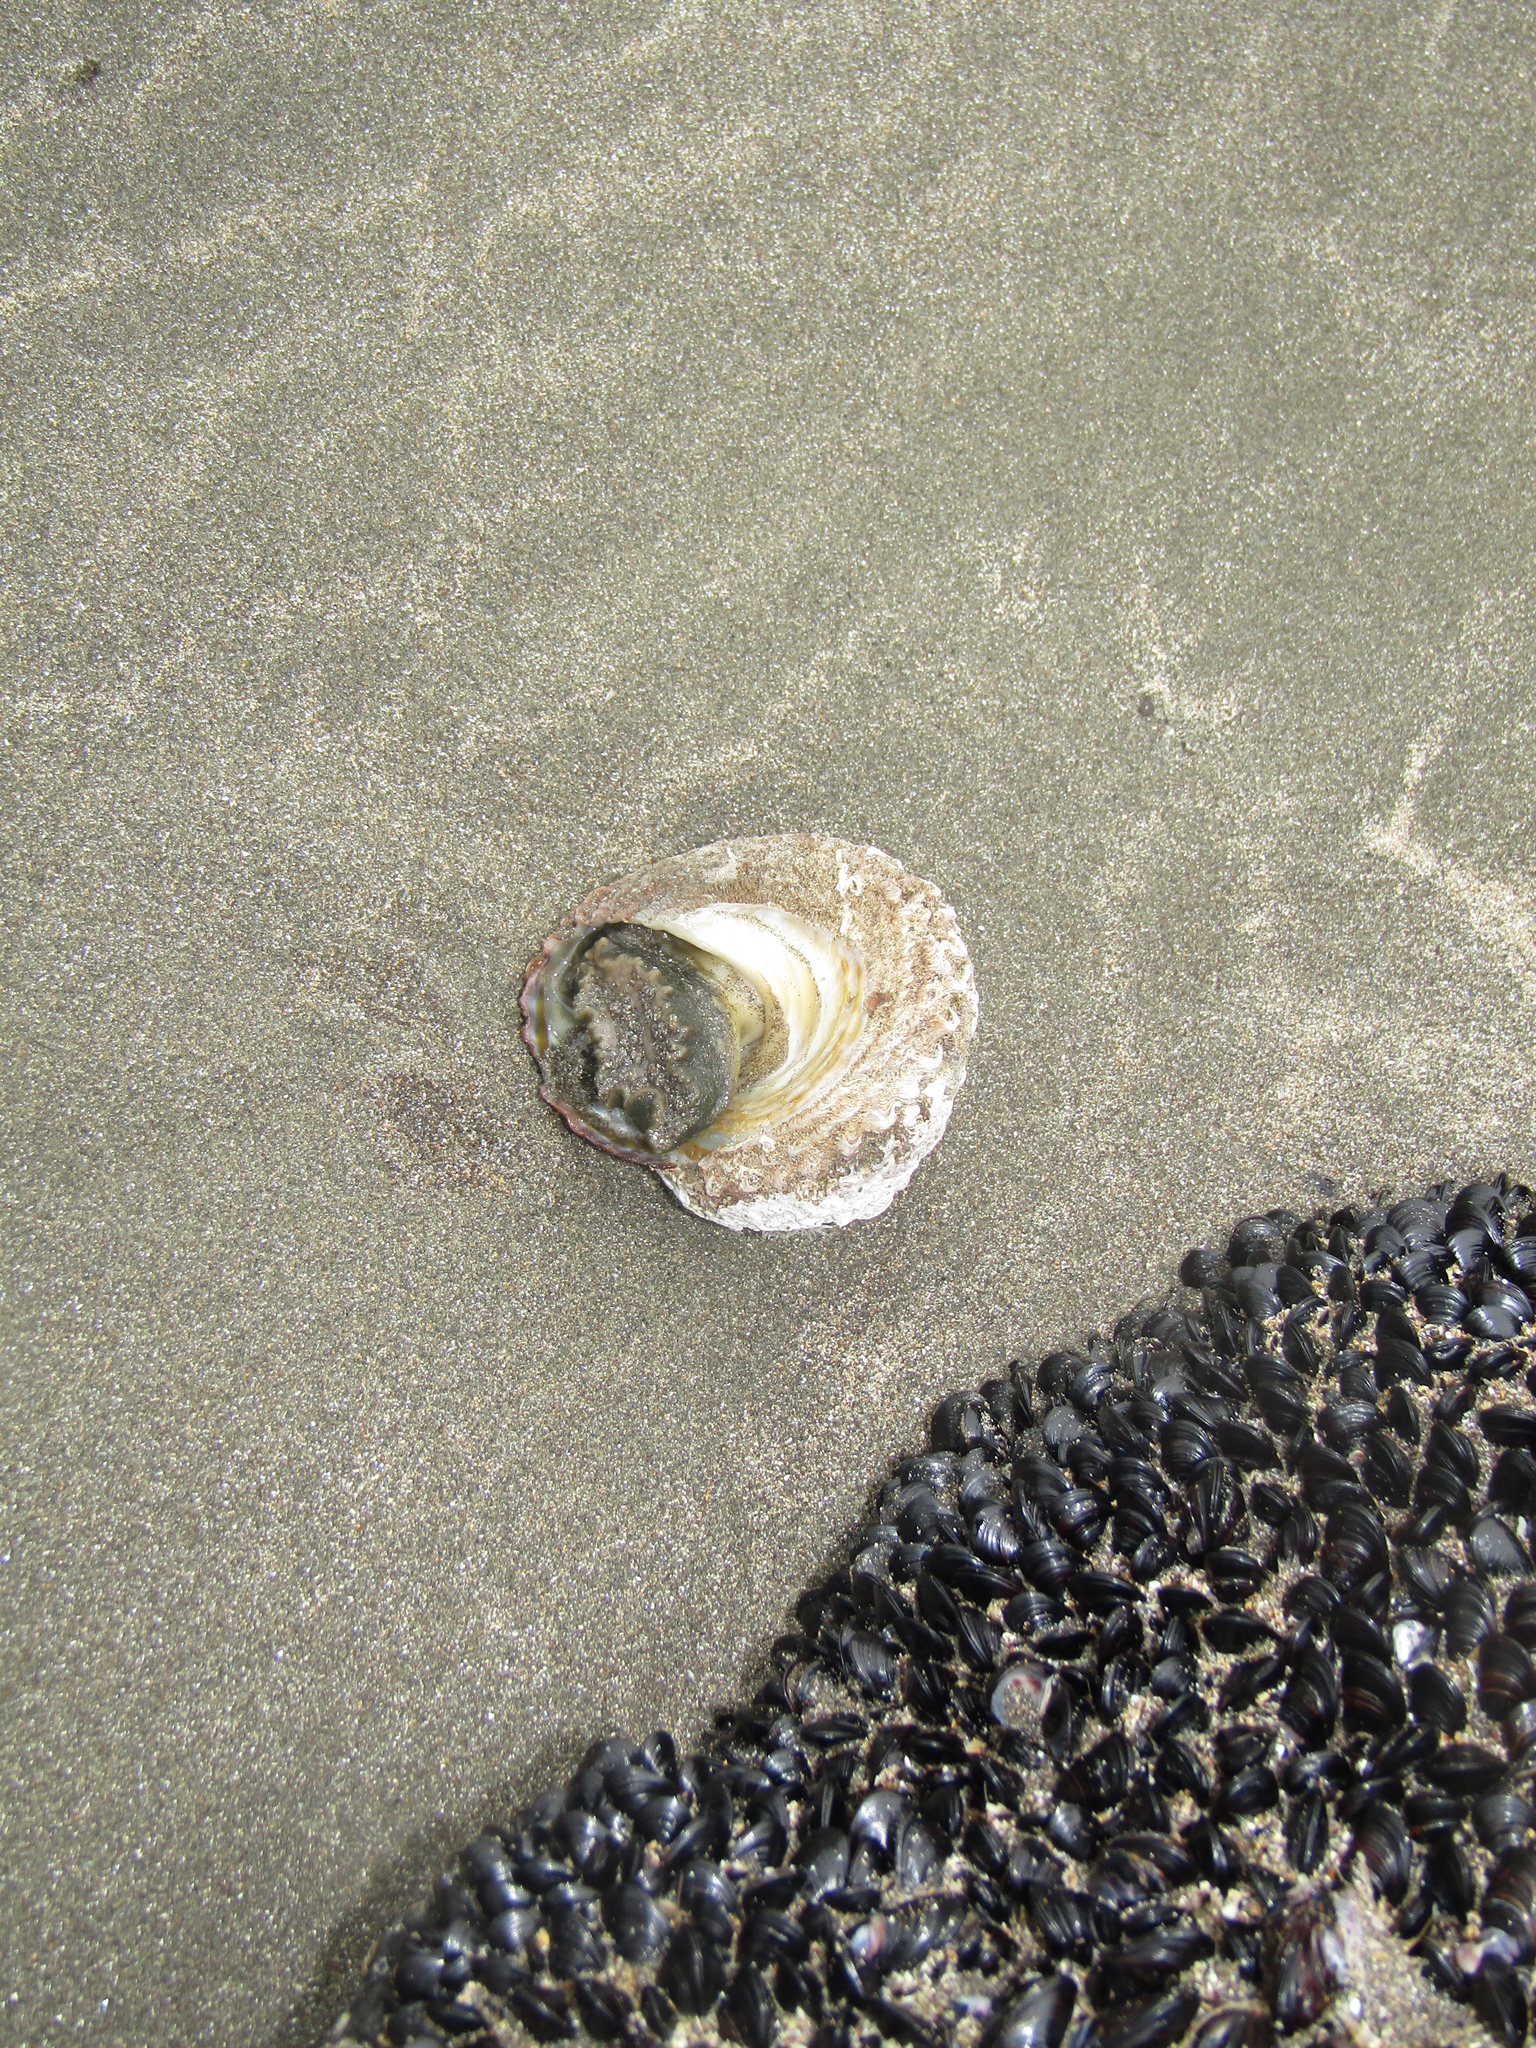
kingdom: Animalia
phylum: Mollusca
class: Gastropoda
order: Trochida
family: Turbinidae
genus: Cookia
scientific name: Cookia sulcata
